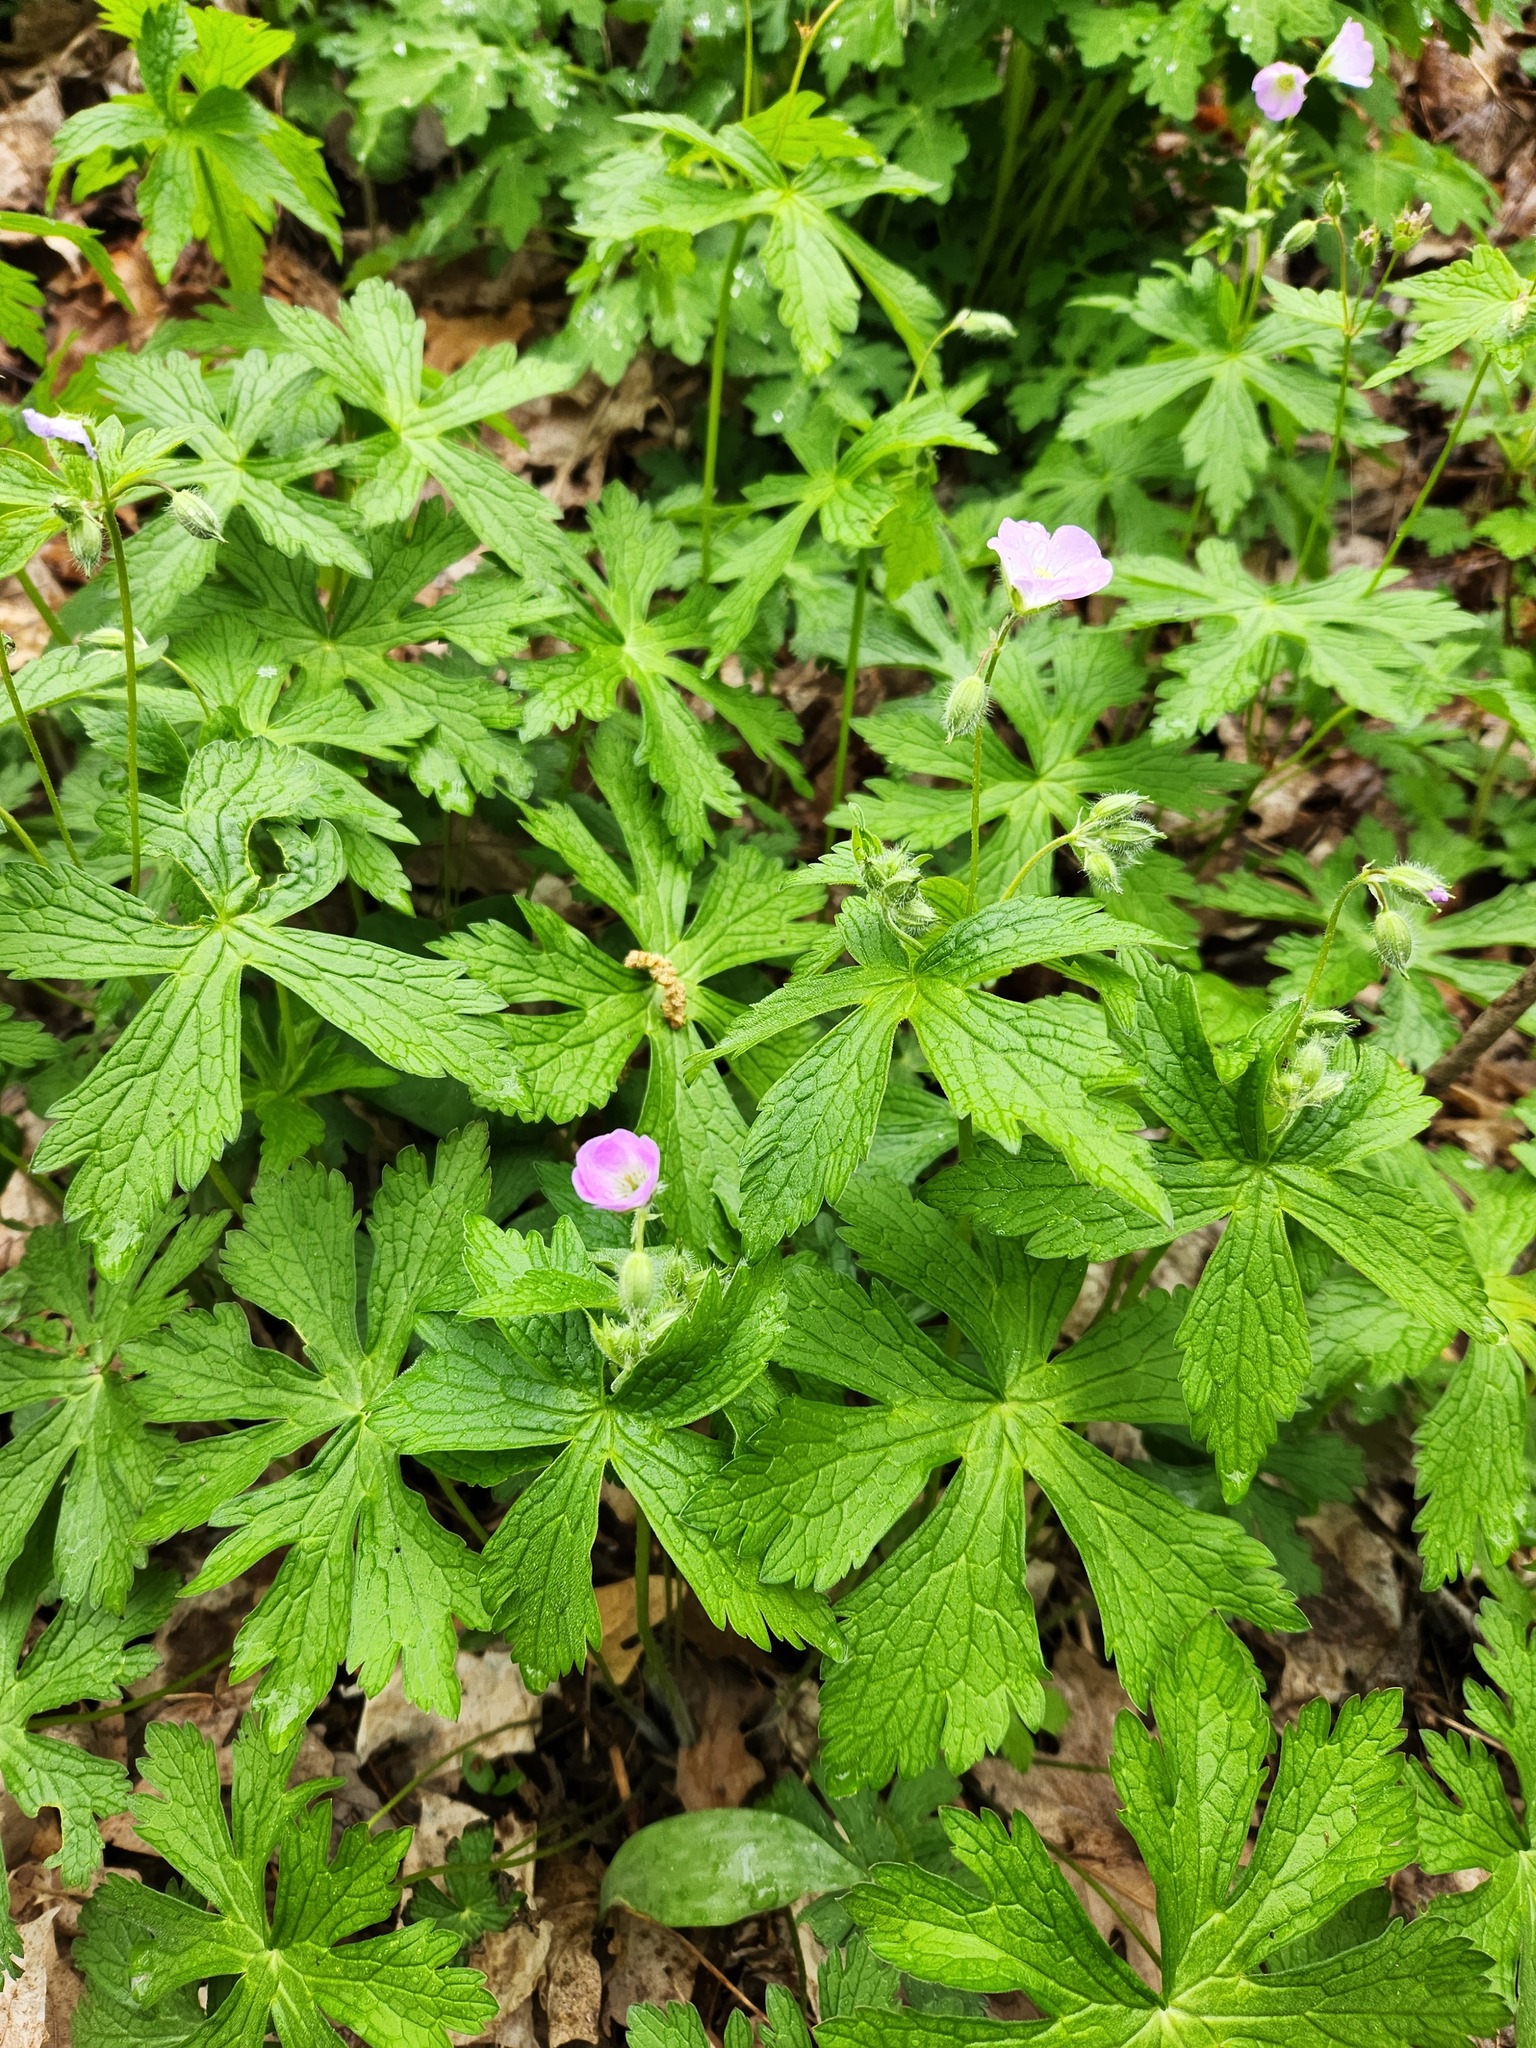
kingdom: Plantae
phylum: Tracheophyta
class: Magnoliopsida
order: Geraniales
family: Geraniaceae
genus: Geranium
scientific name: Geranium maculatum
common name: Spotted geranium
